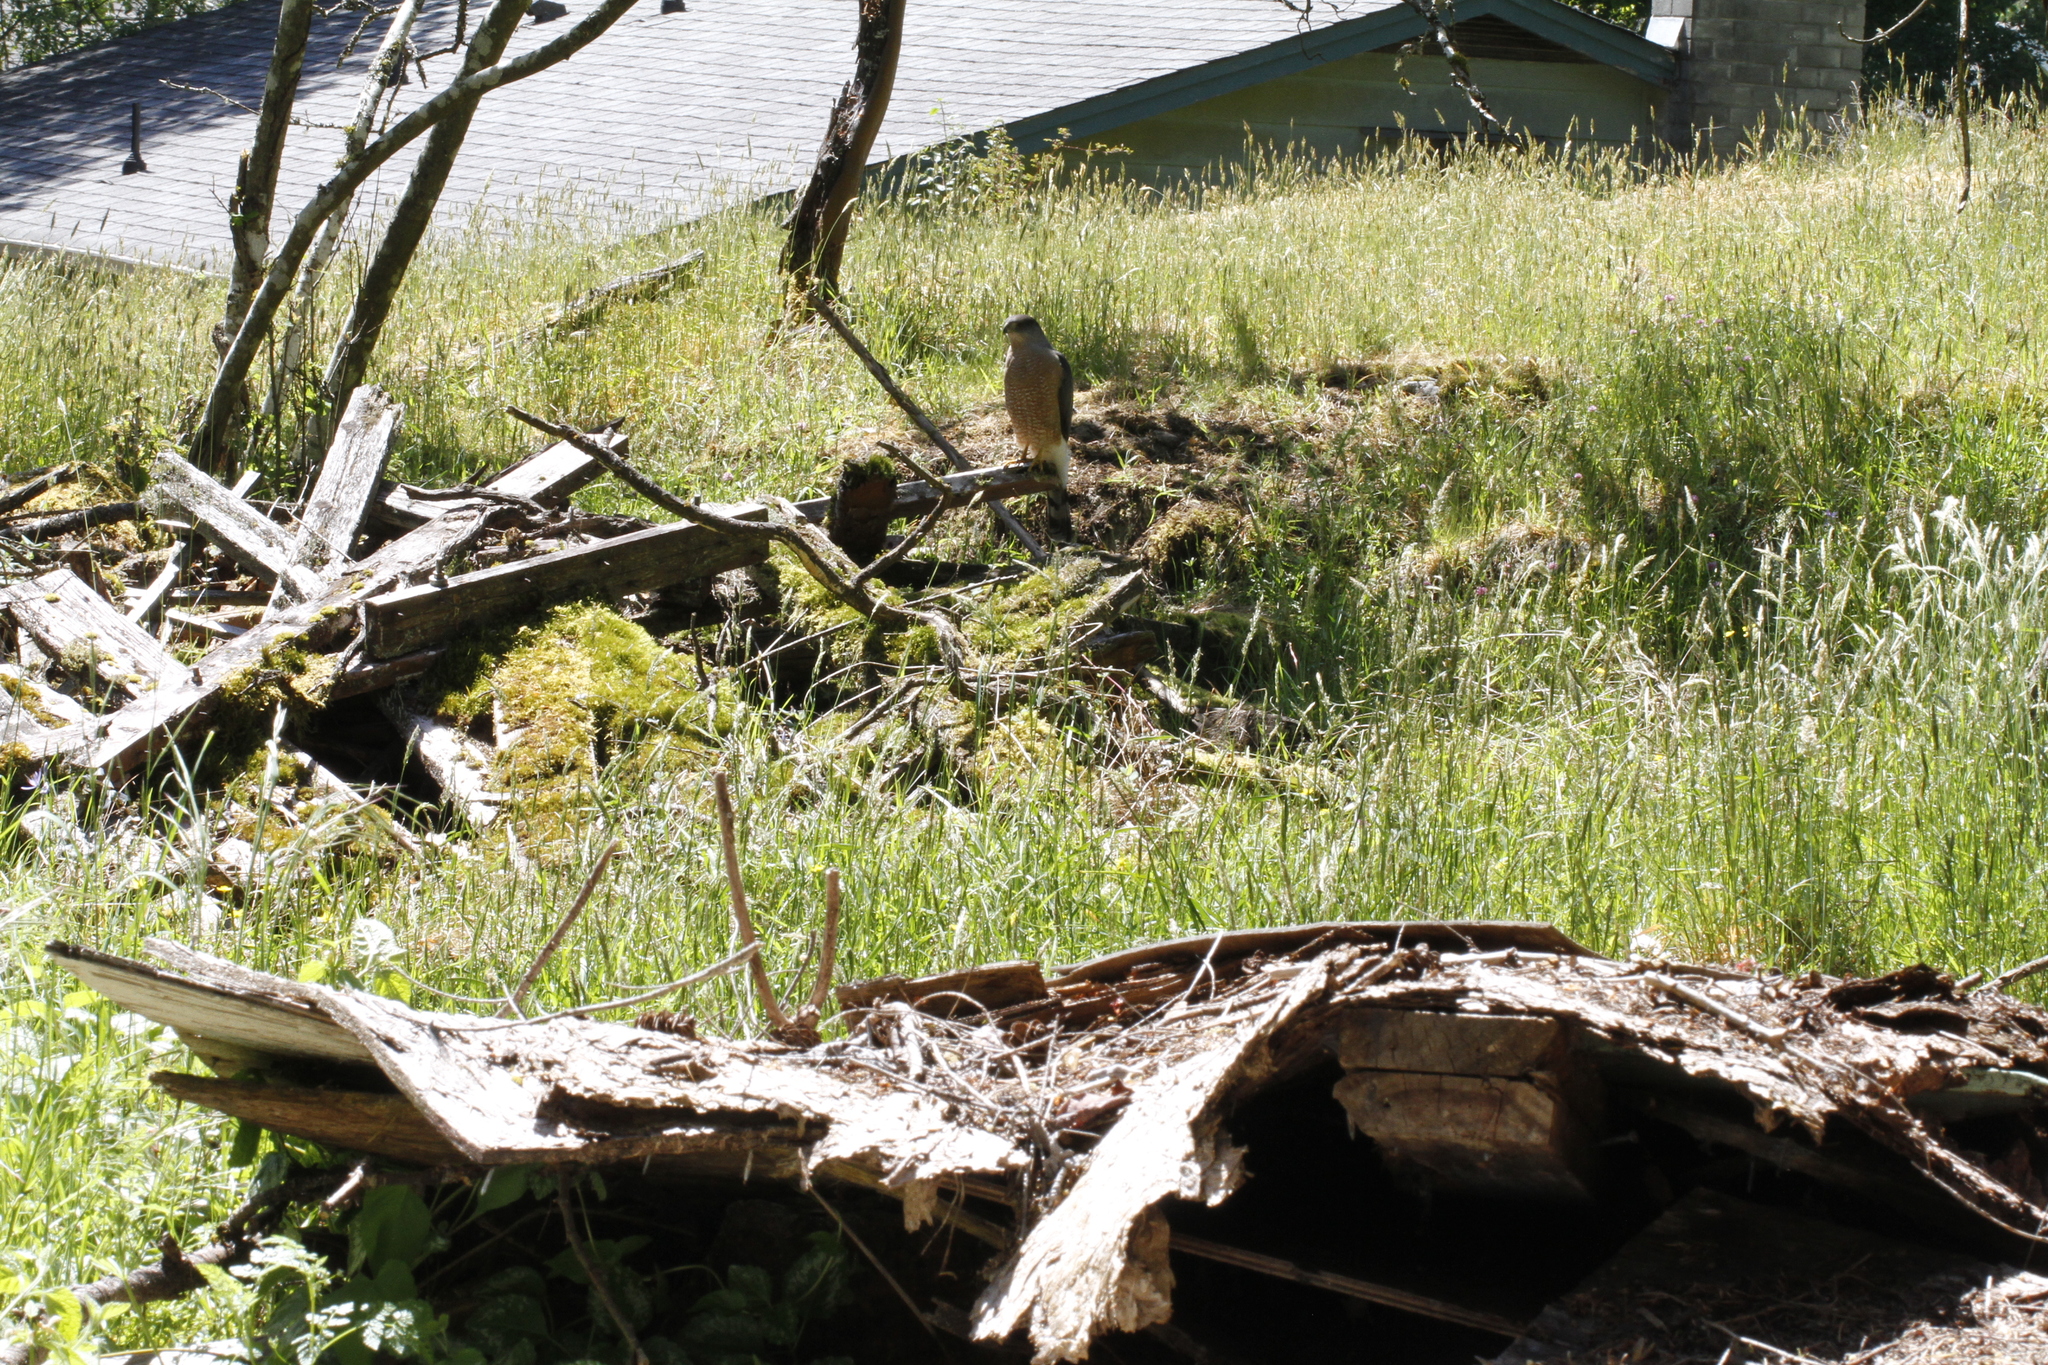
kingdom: Animalia
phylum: Chordata
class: Aves
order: Accipitriformes
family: Accipitridae
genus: Accipiter
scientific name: Accipiter cooperii
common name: Cooper's hawk
